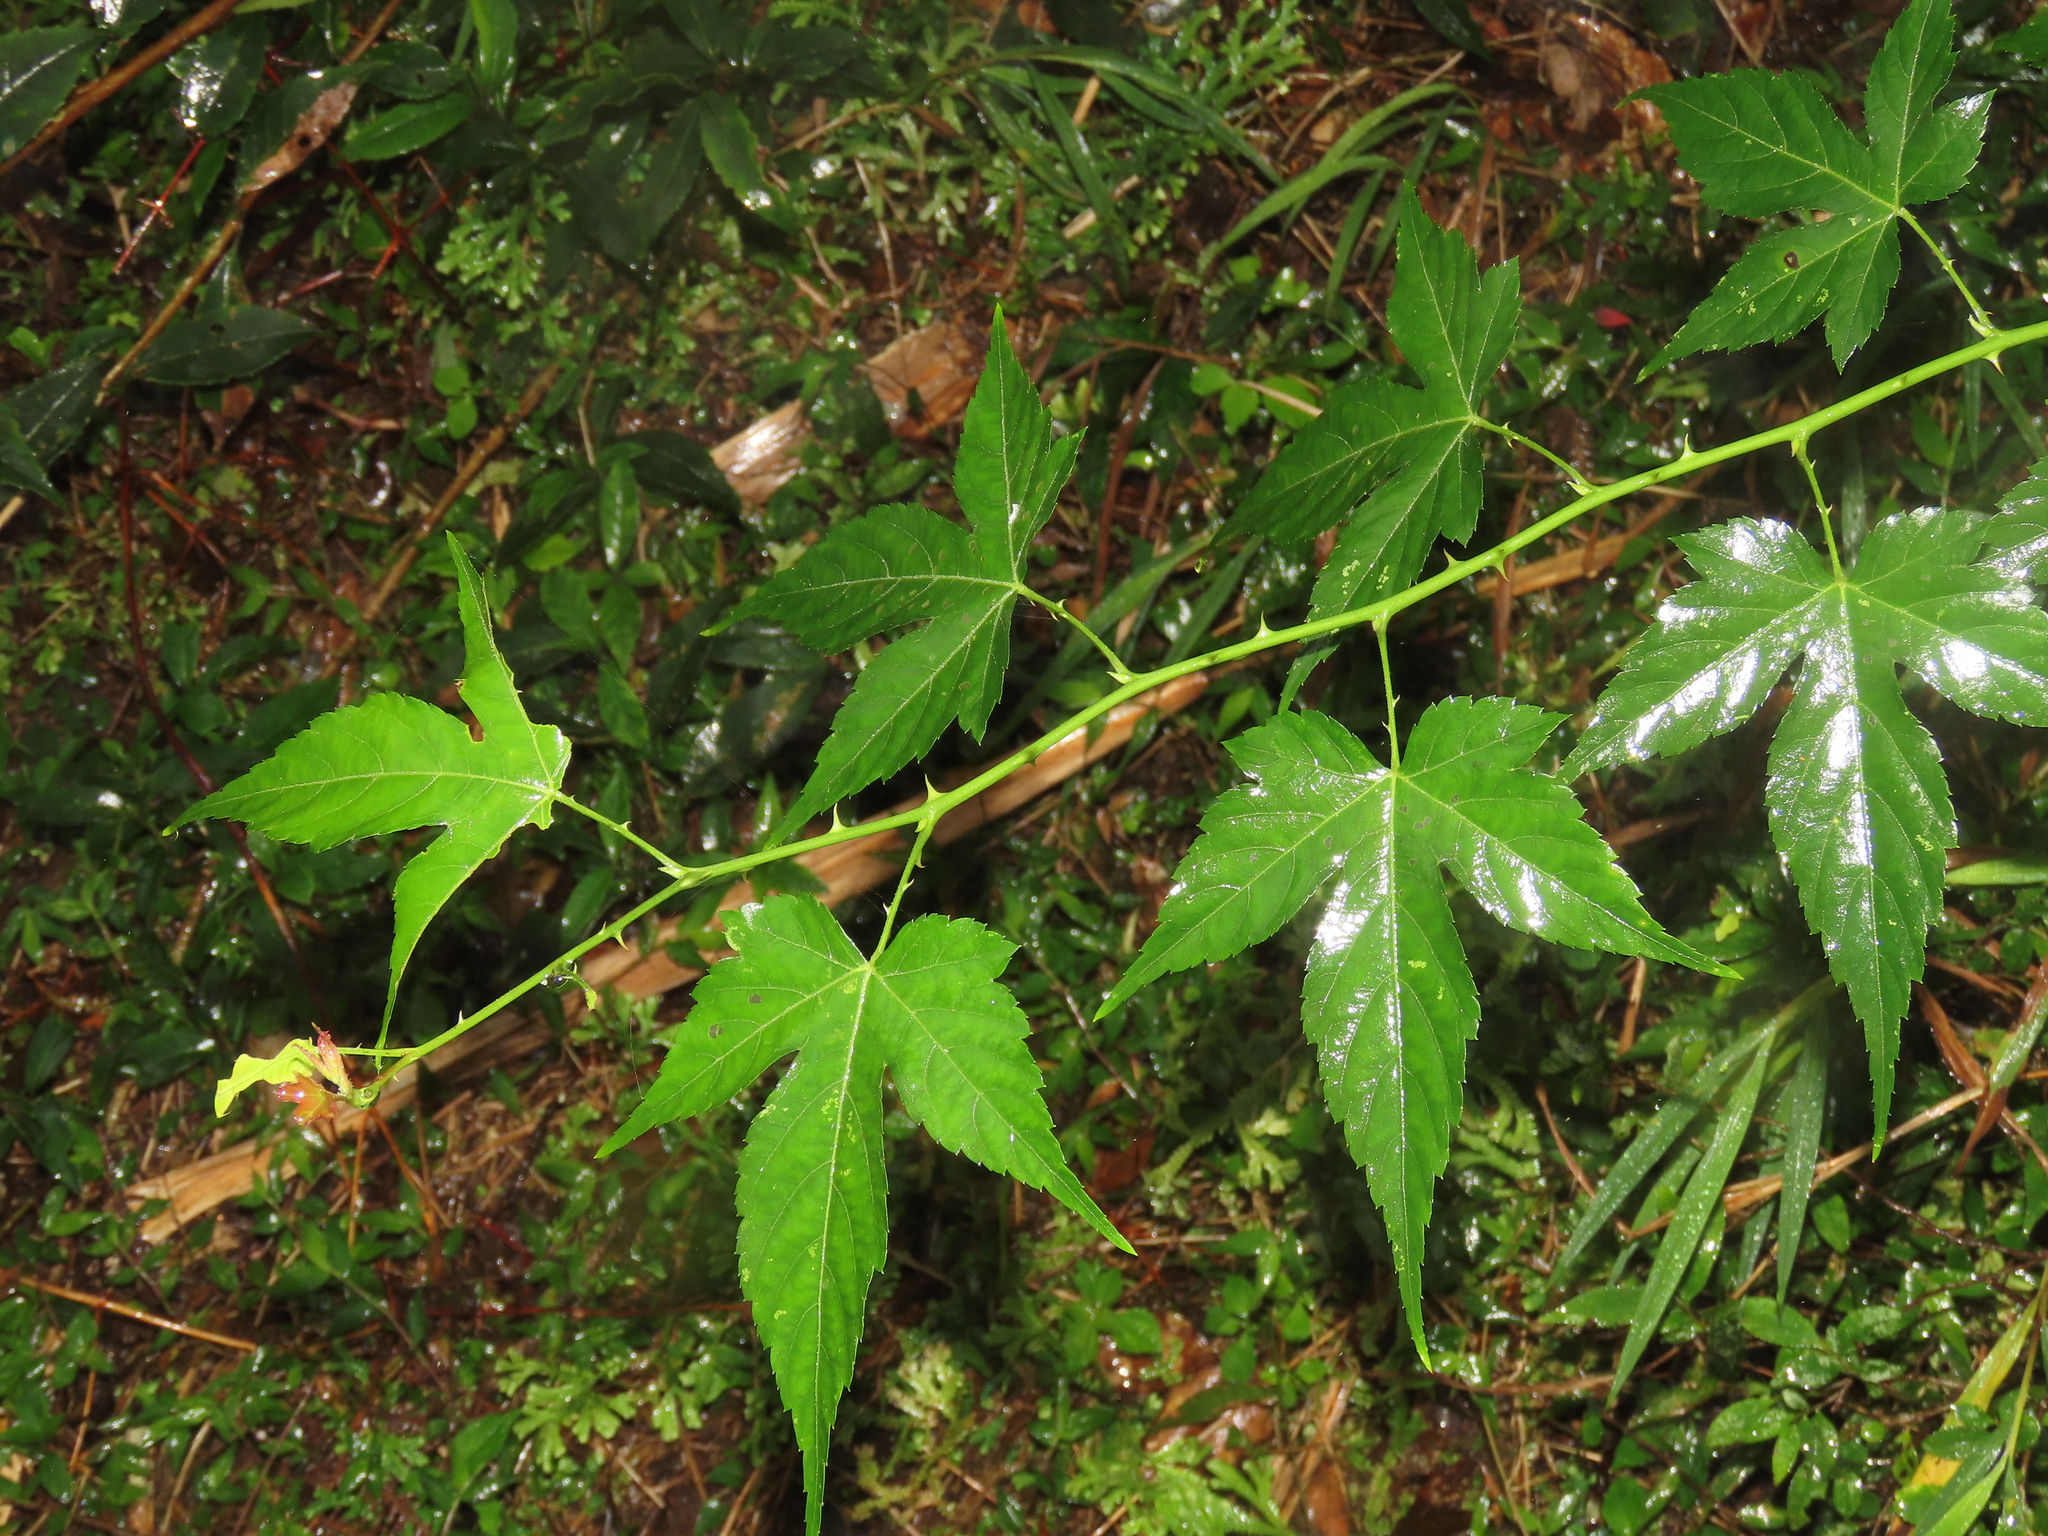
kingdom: Plantae
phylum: Tracheophyta
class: Magnoliopsida
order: Rosales
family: Rosaceae
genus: Rubus
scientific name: Rubus corchorifolius
